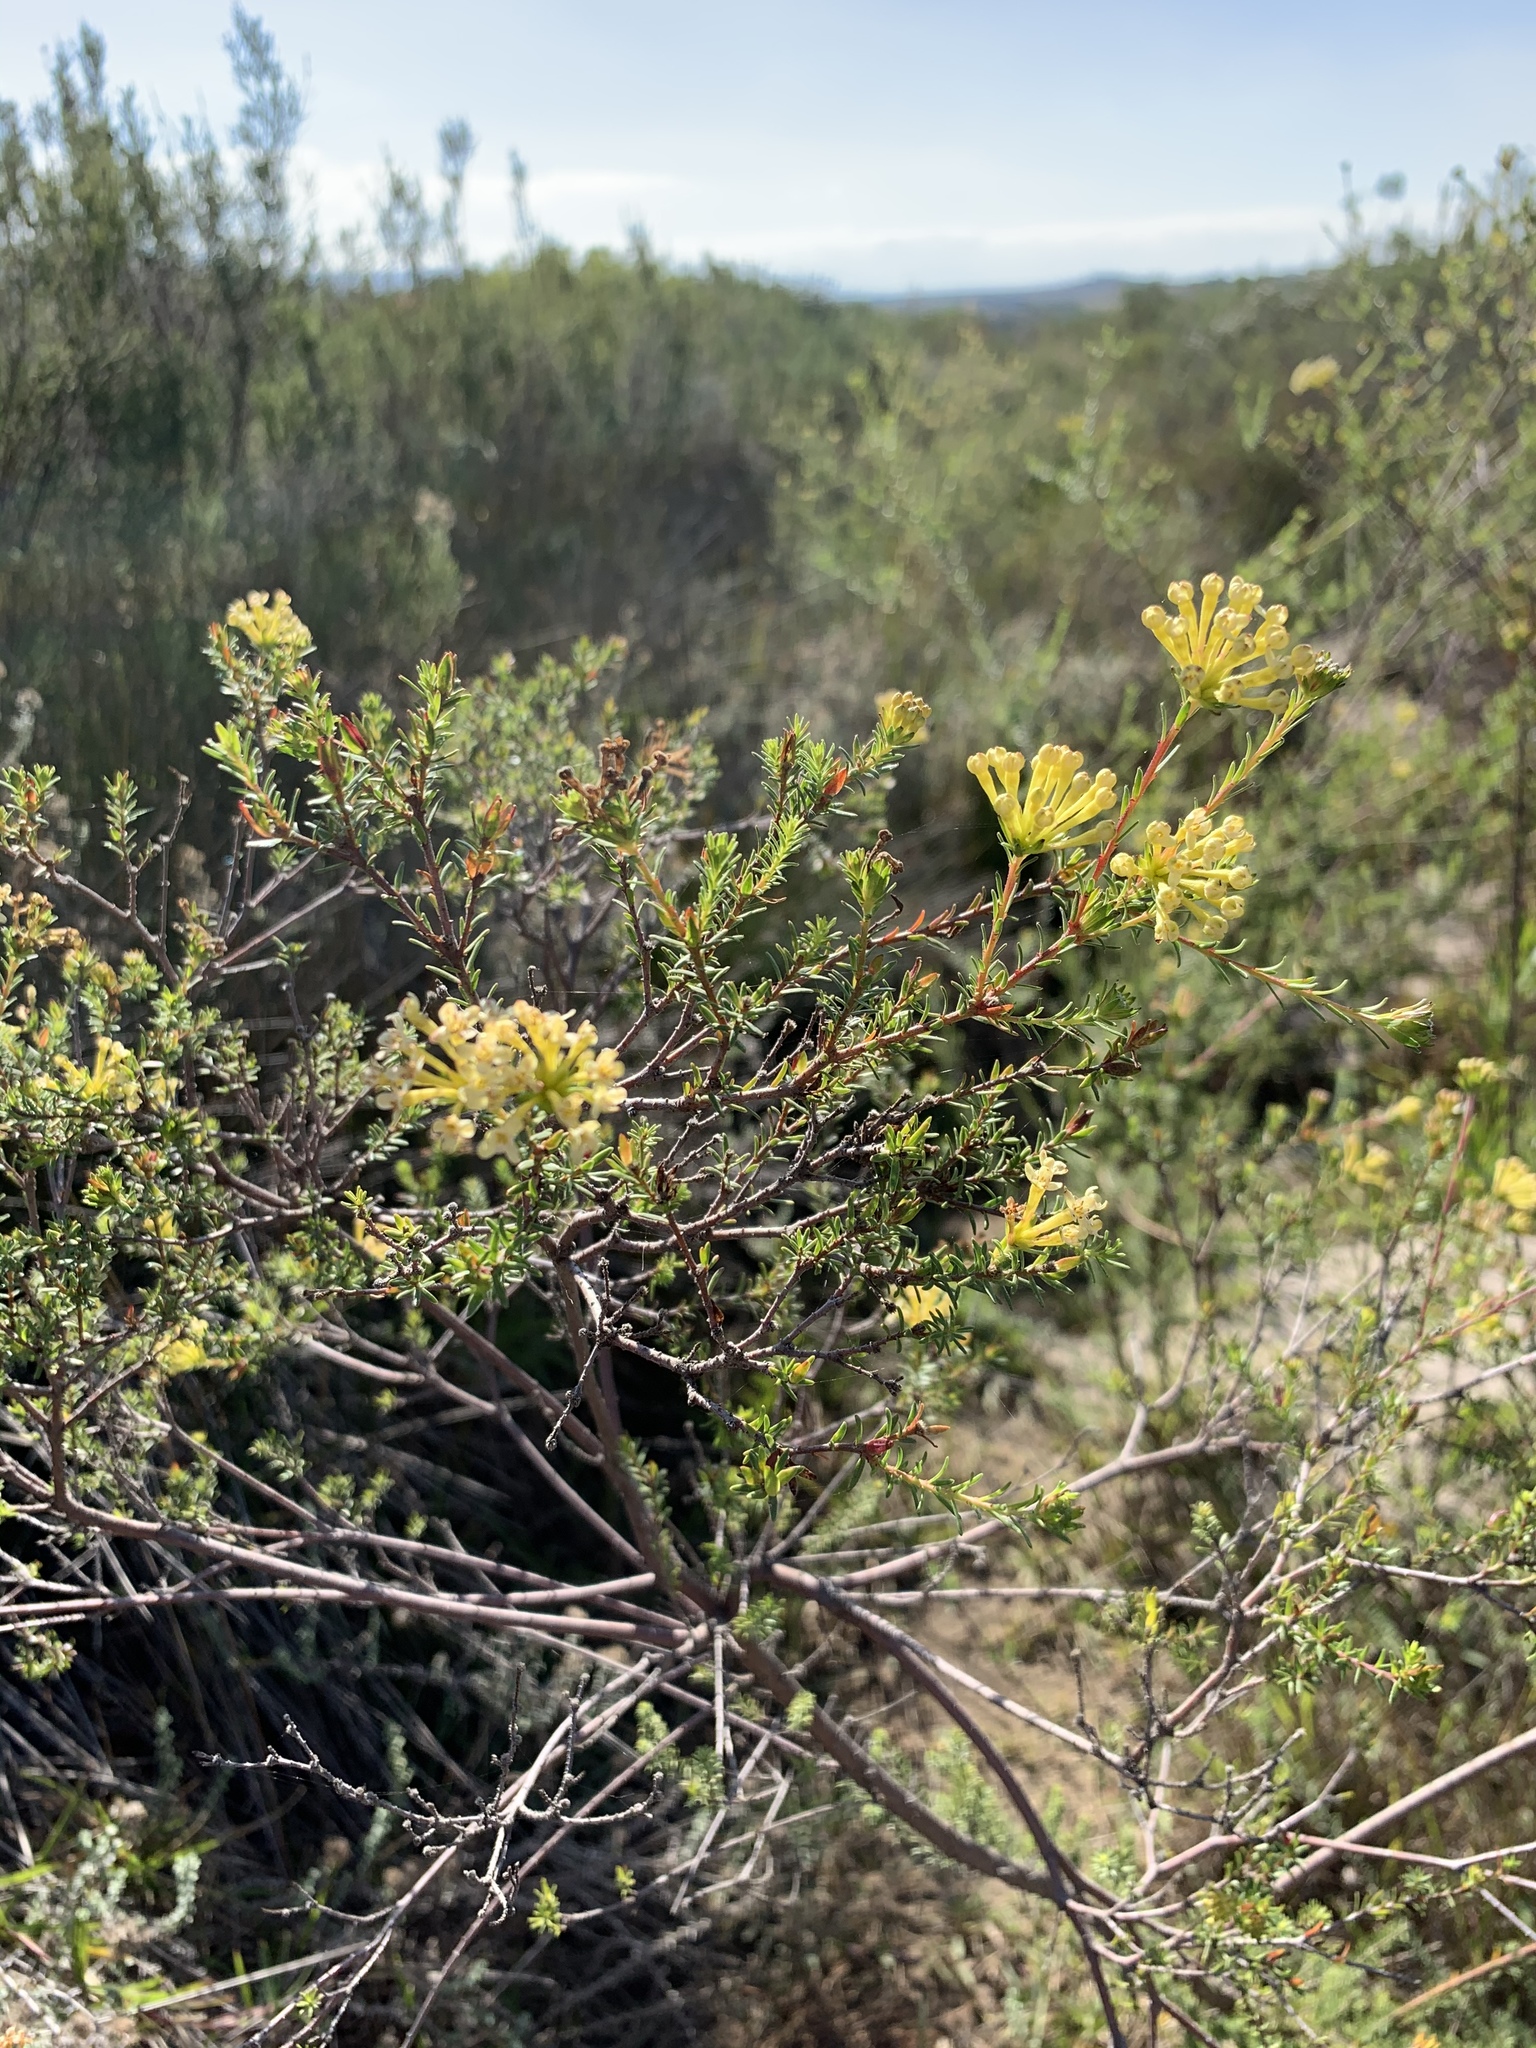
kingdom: Plantae
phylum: Tracheophyta
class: Magnoliopsida
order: Malvales
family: Thymelaeaceae
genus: Gnidia
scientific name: Gnidia squarrosa
